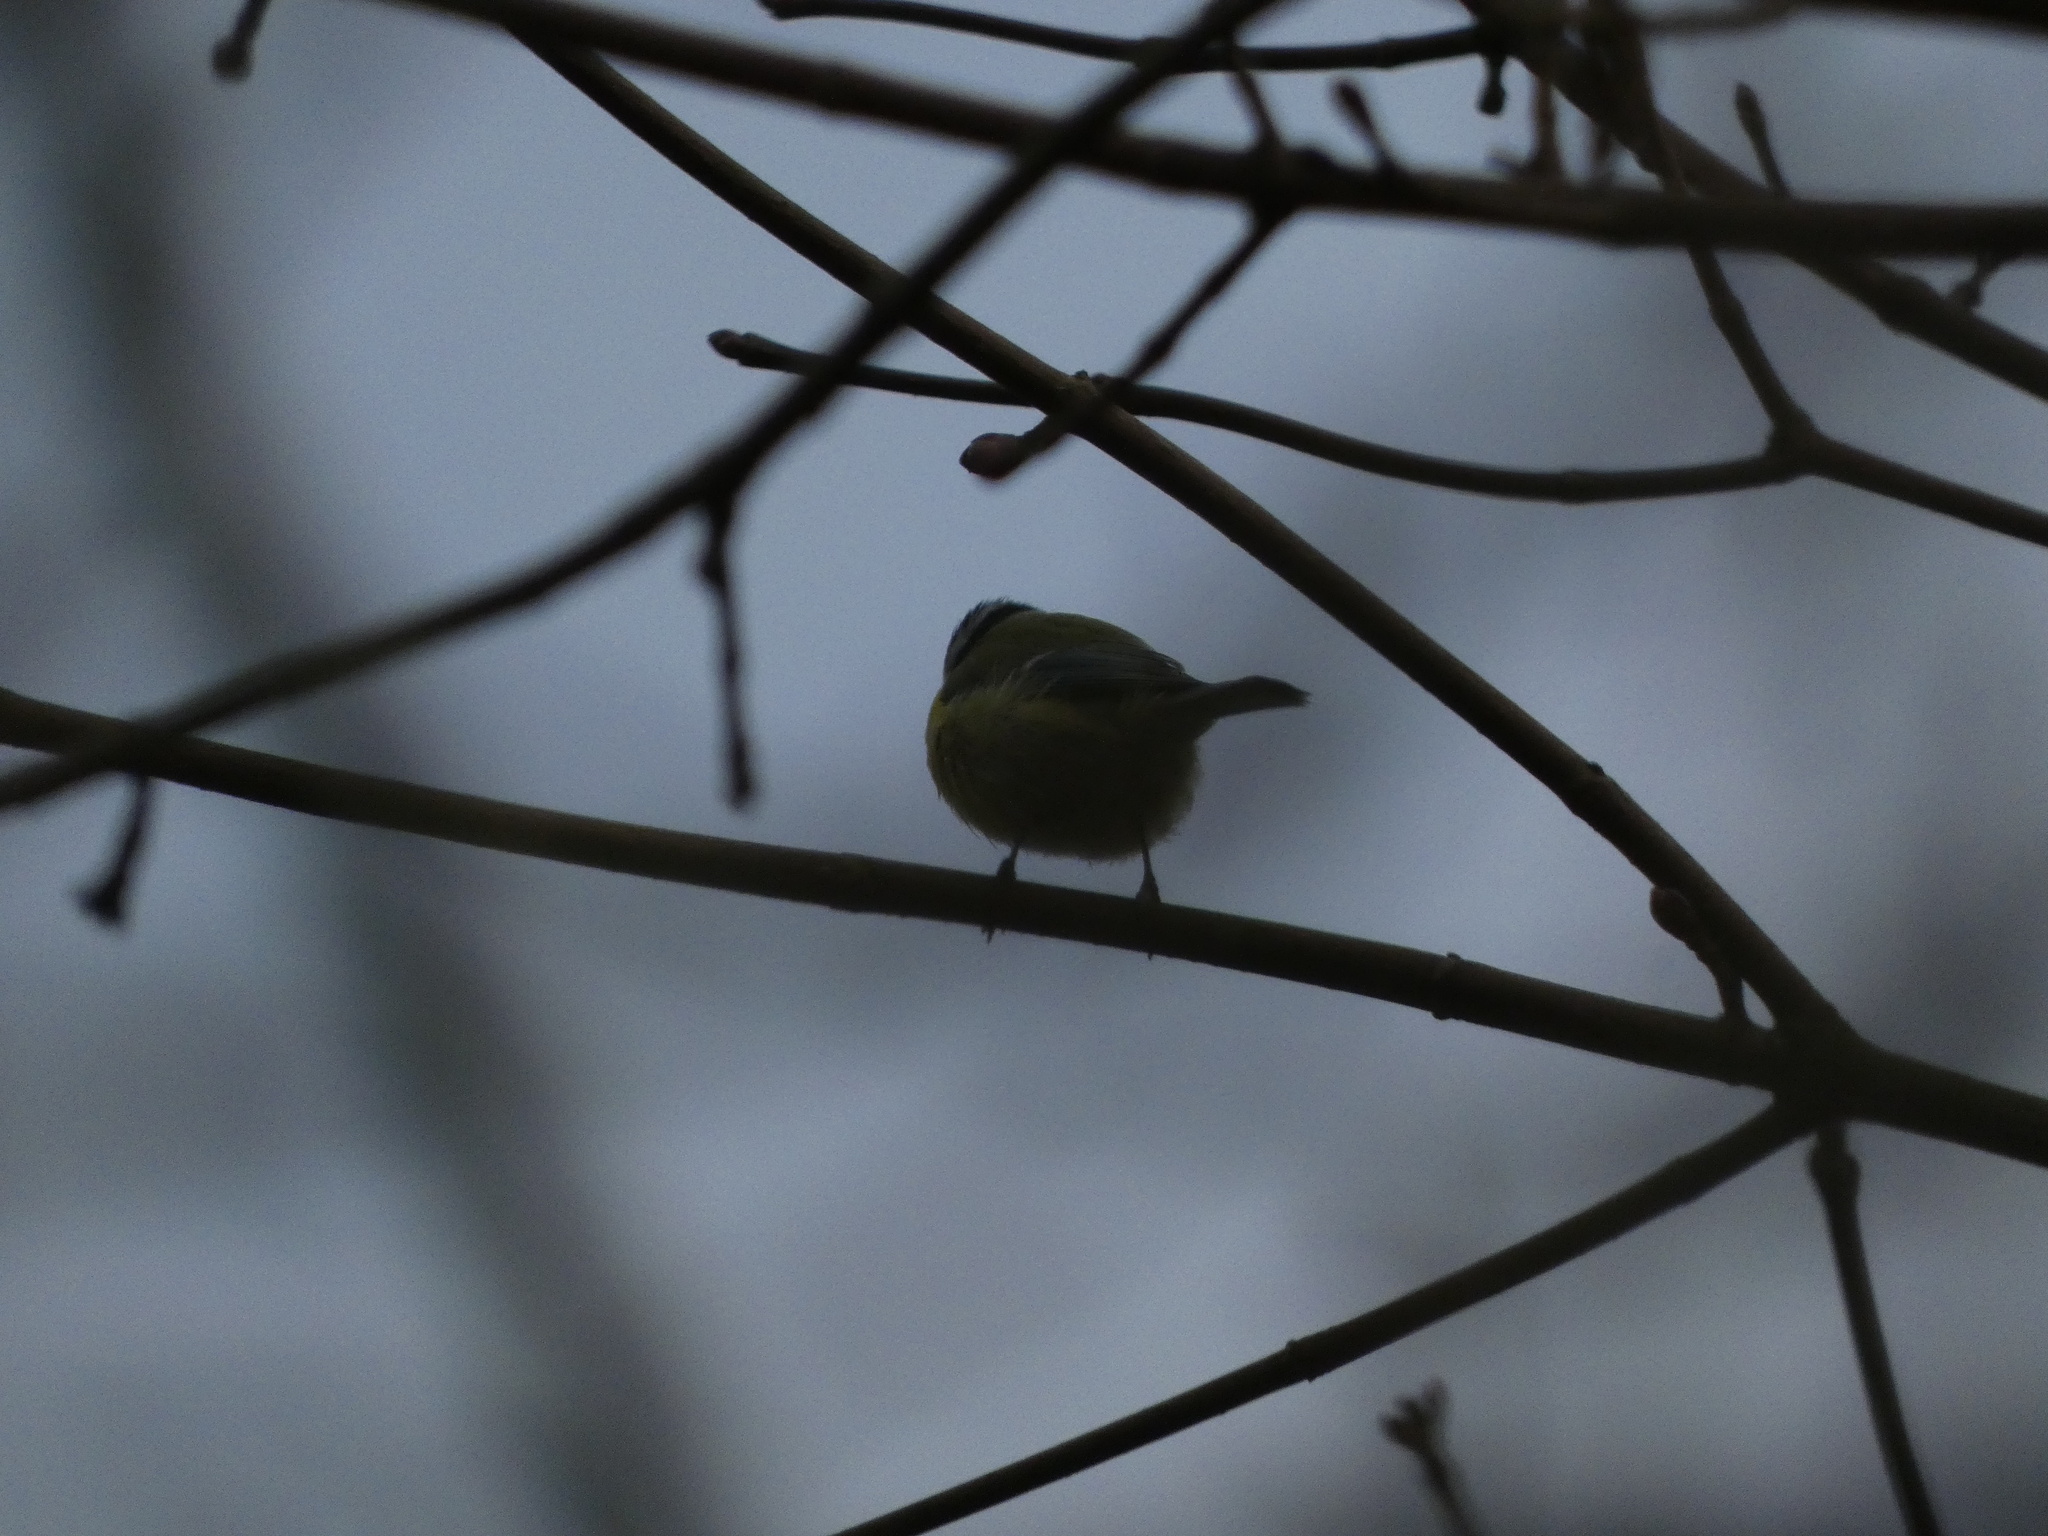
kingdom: Animalia
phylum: Chordata
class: Aves
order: Passeriformes
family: Paridae
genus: Cyanistes
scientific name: Cyanistes caeruleus
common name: Eurasian blue tit
